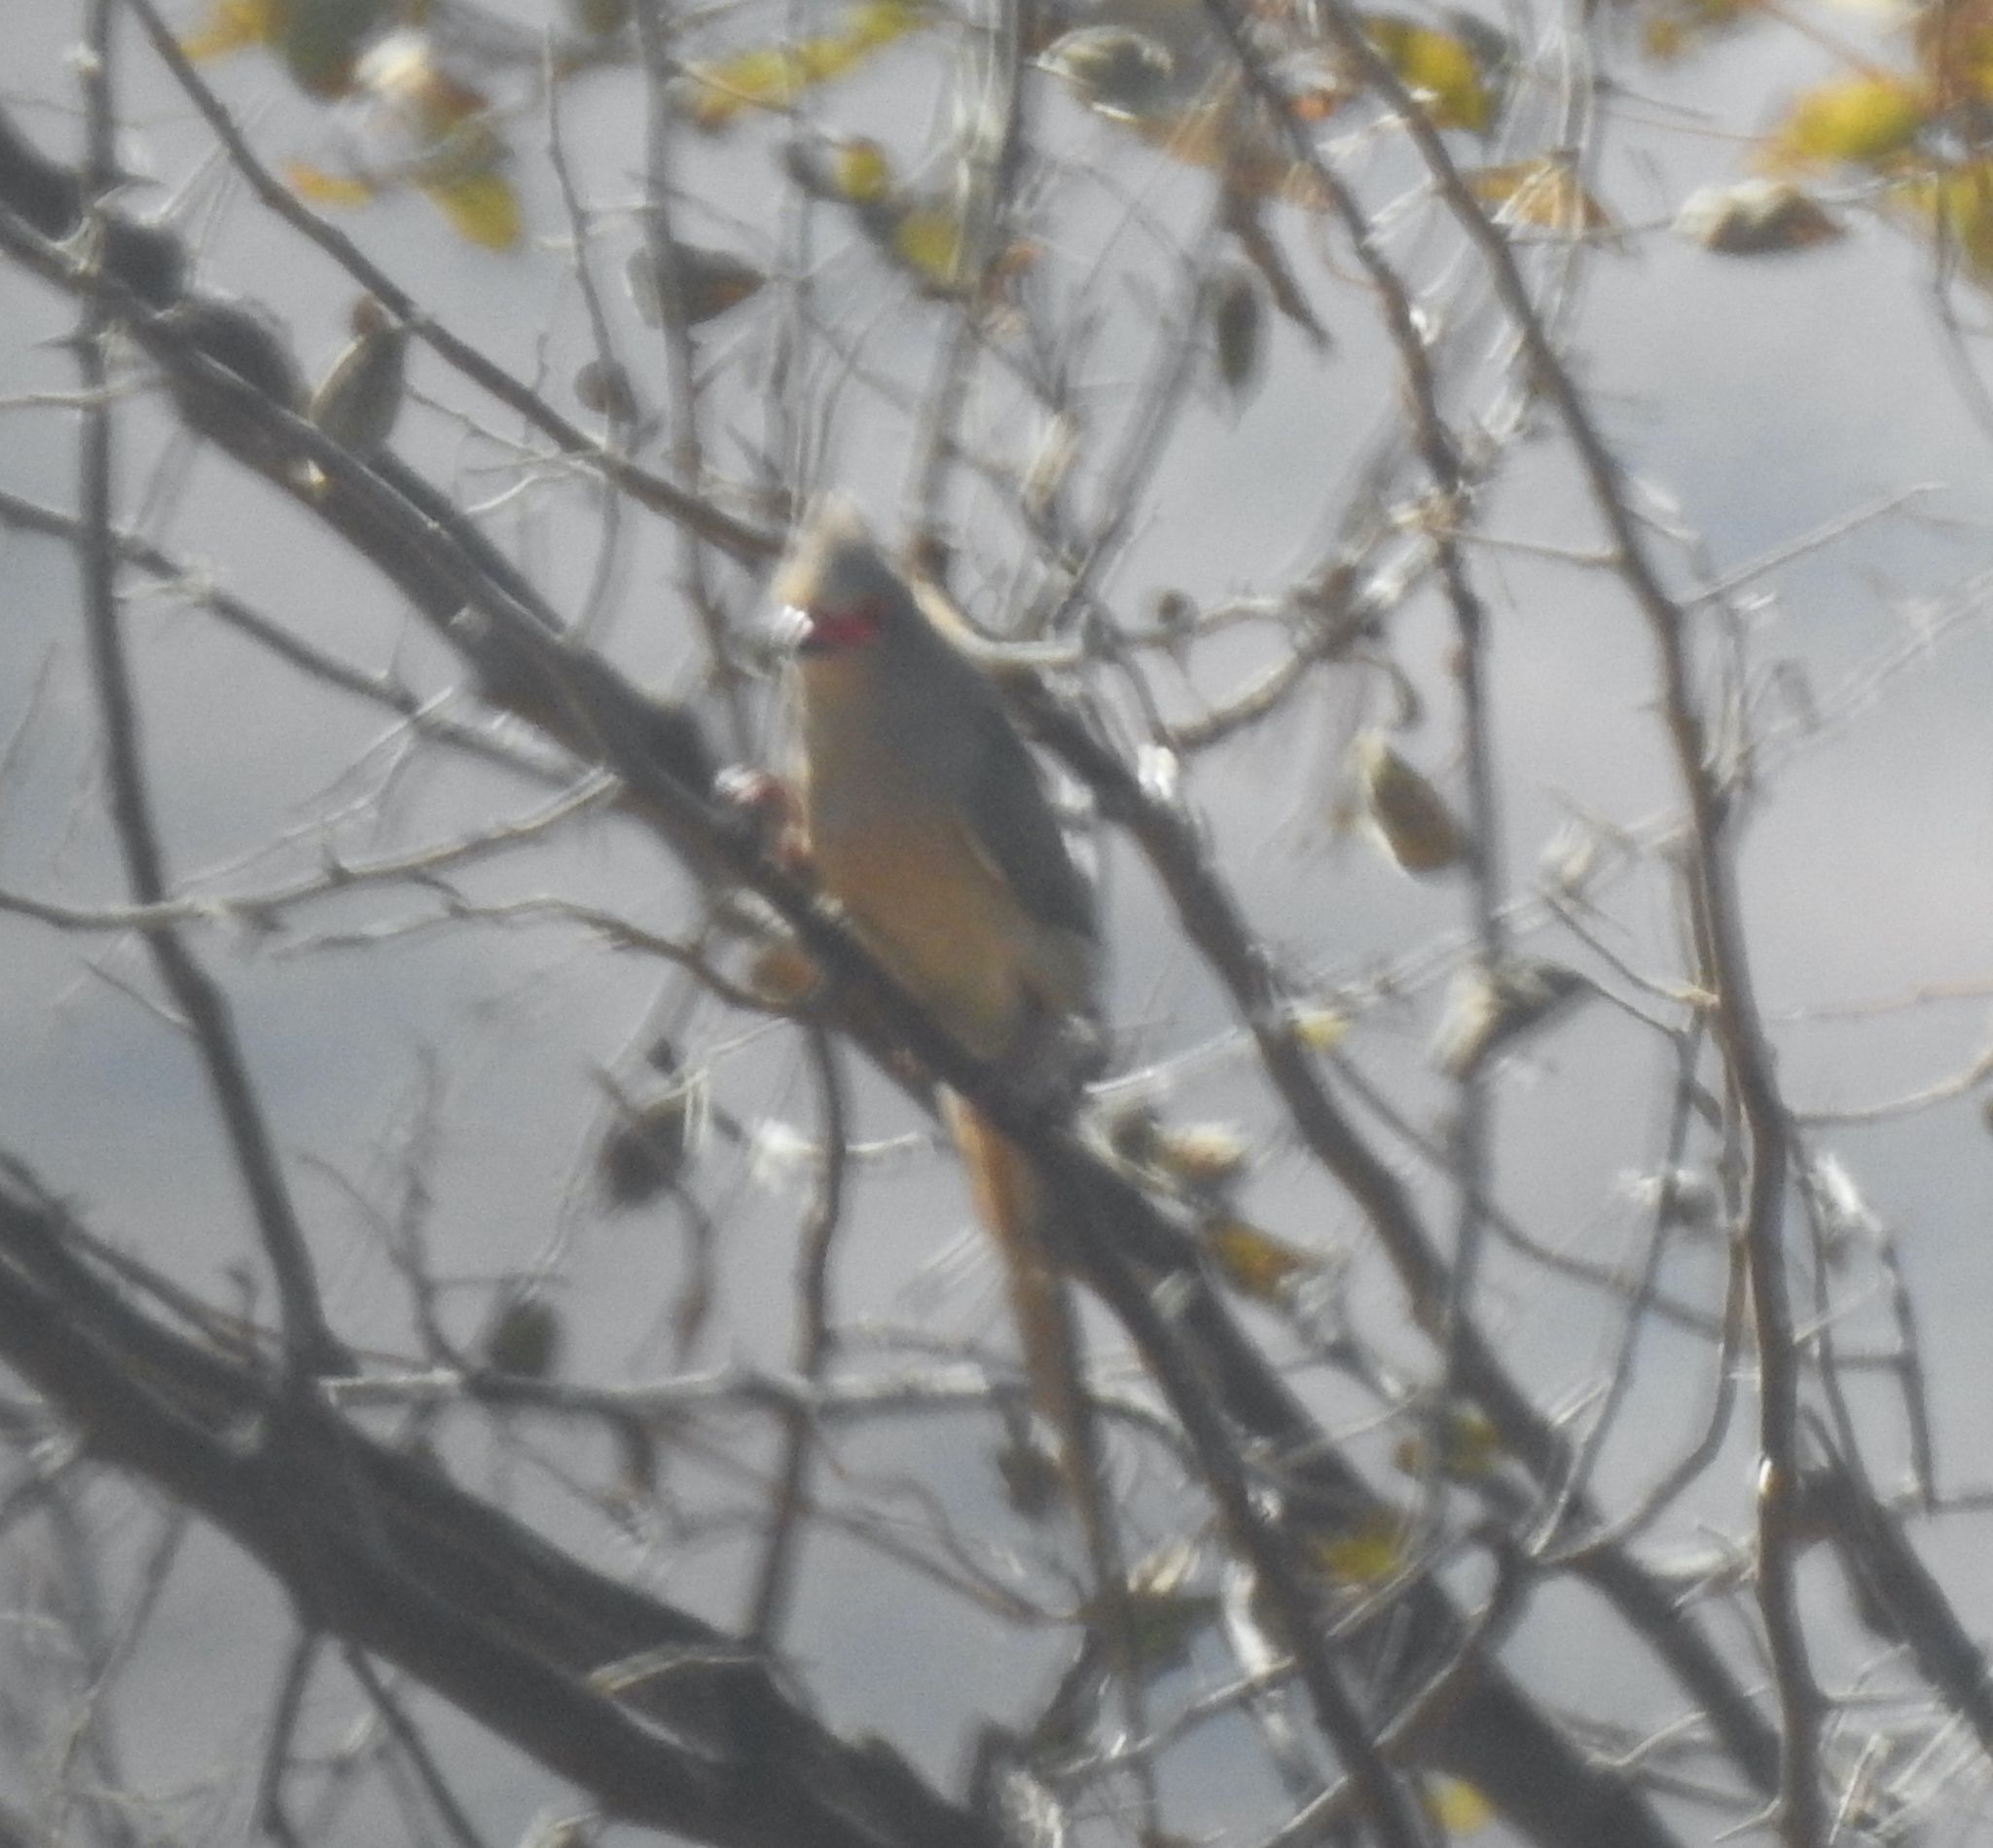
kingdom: Animalia
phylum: Chordata
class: Aves
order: Coliiformes
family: Coliidae
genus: Urocolius
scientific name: Urocolius indicus
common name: Red-faced mousebird
